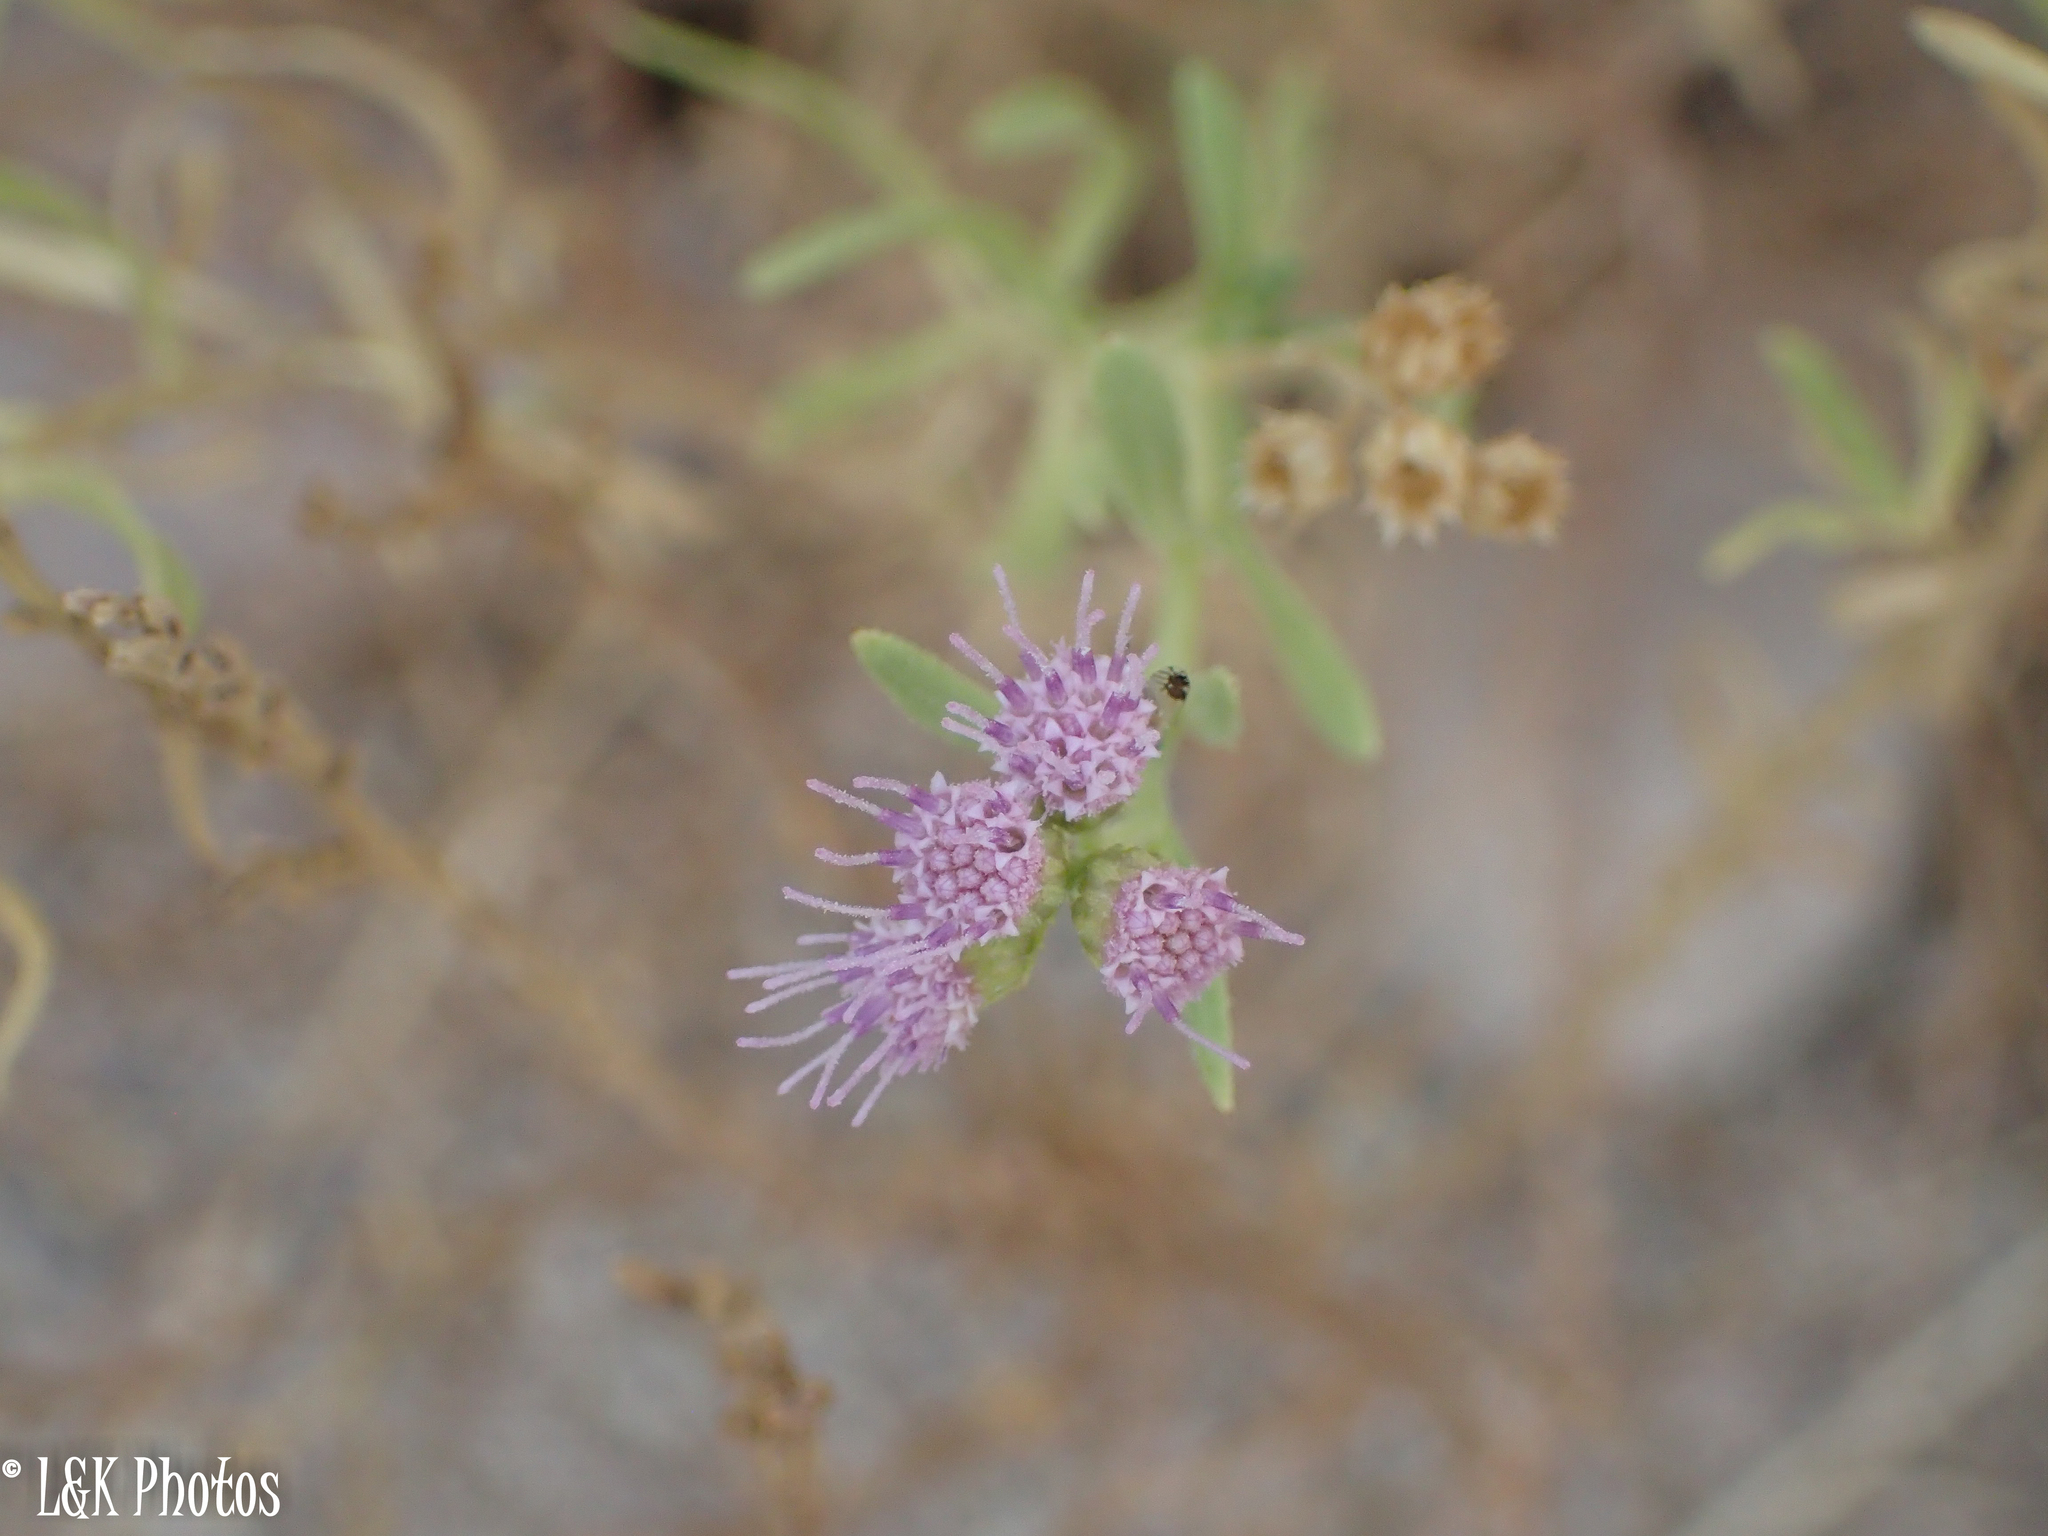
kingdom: Plantae
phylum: Tracheophyta
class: Magnoliopsida
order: Asterales
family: Asteraceae
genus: Litogyne
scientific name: Litogyne gariepina
